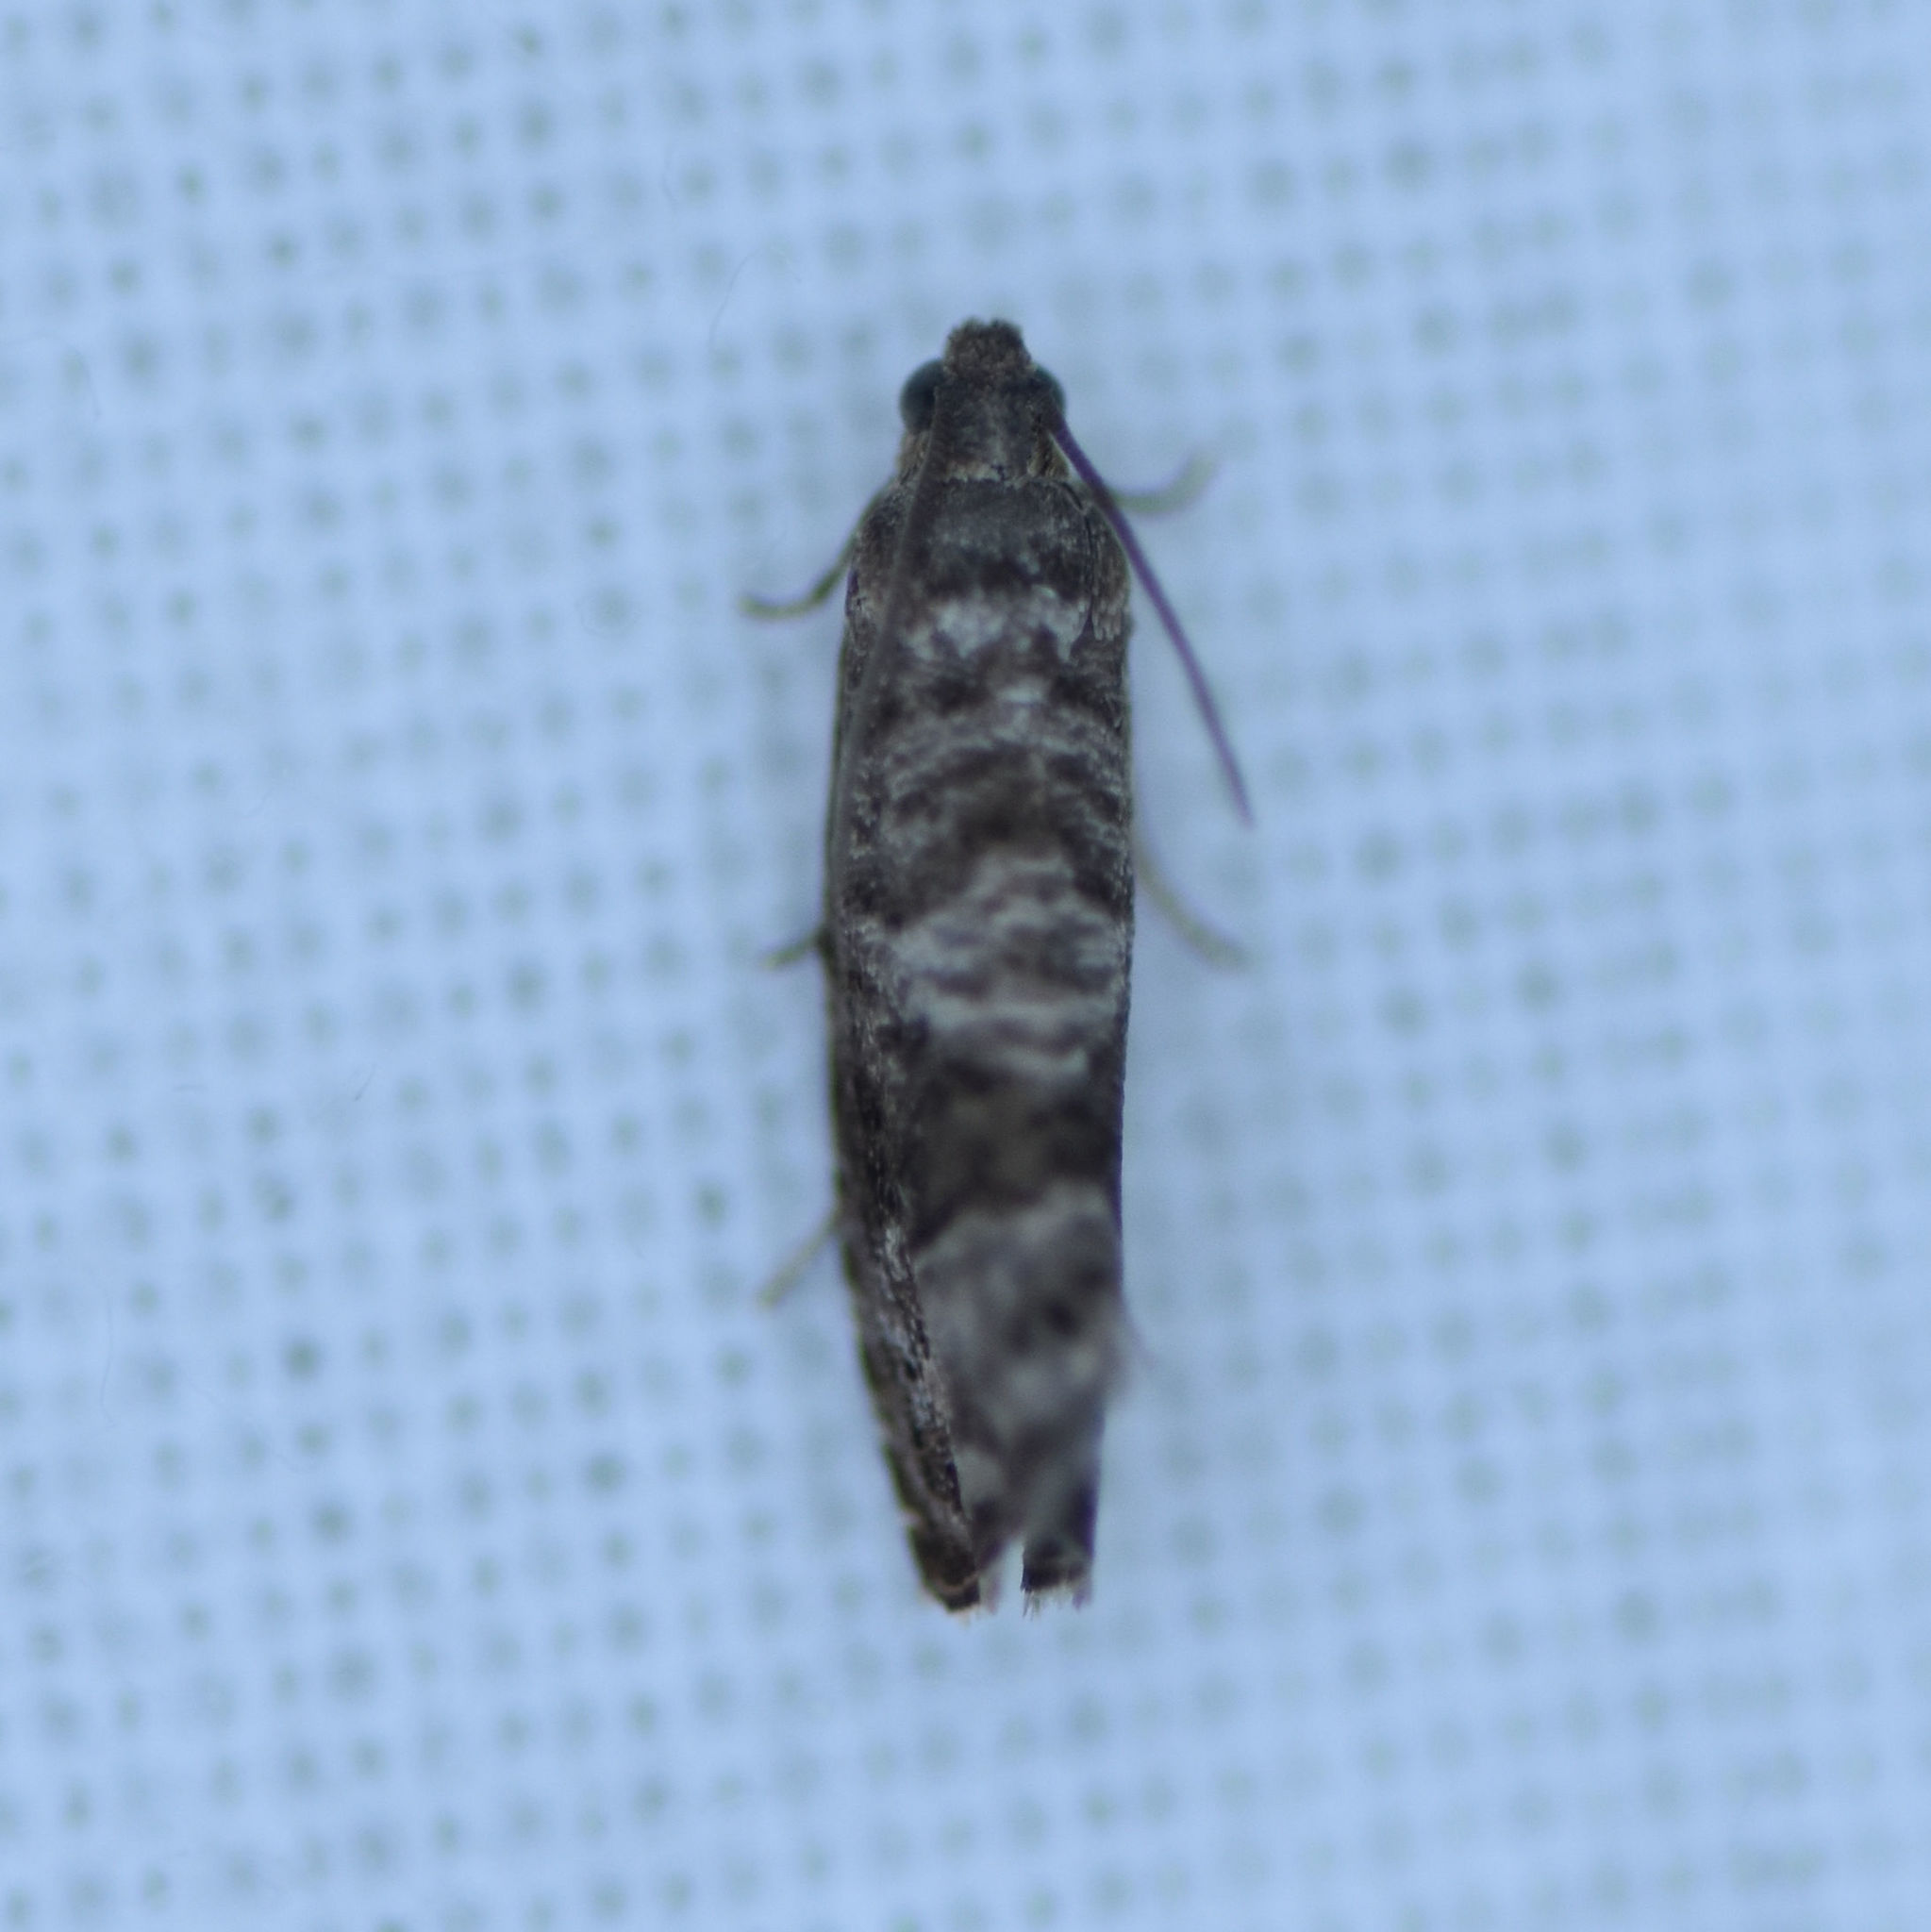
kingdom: Animalia
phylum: Arthropoda
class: Insecta
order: Lepidoptera
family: Noctuidae
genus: Aspila
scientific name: Aspila
